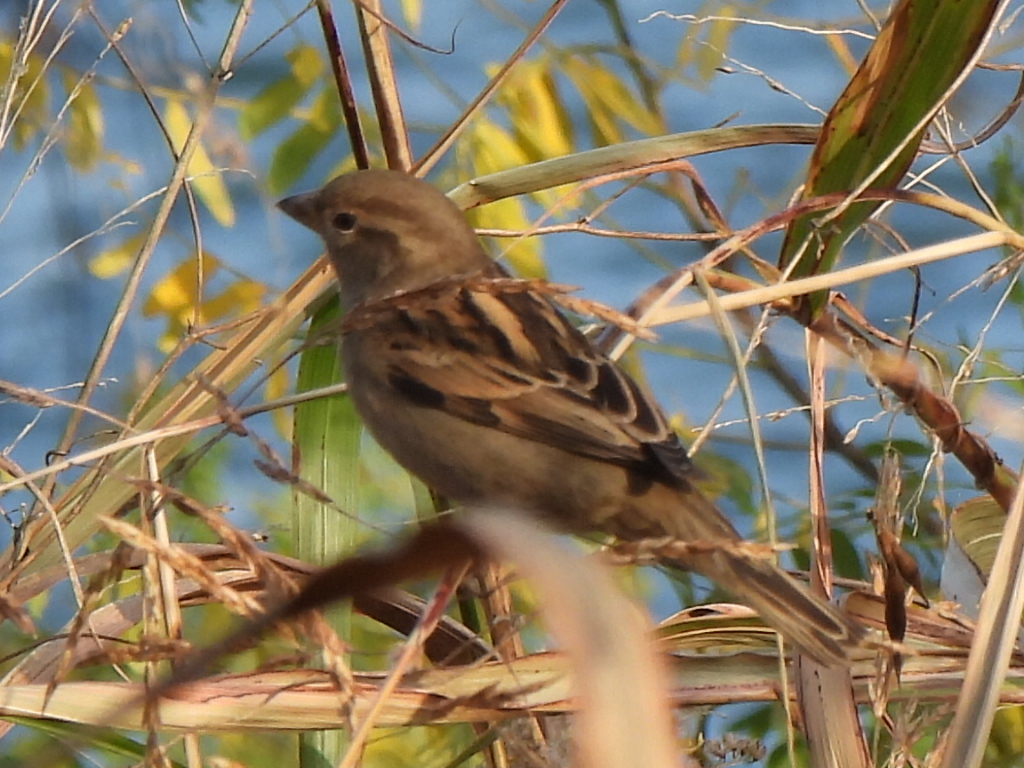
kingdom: Animalia
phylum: Chordata
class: Aves
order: Passeriformes
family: Passeridae
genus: Passer
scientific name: Passer domesticus
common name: House sparrow
